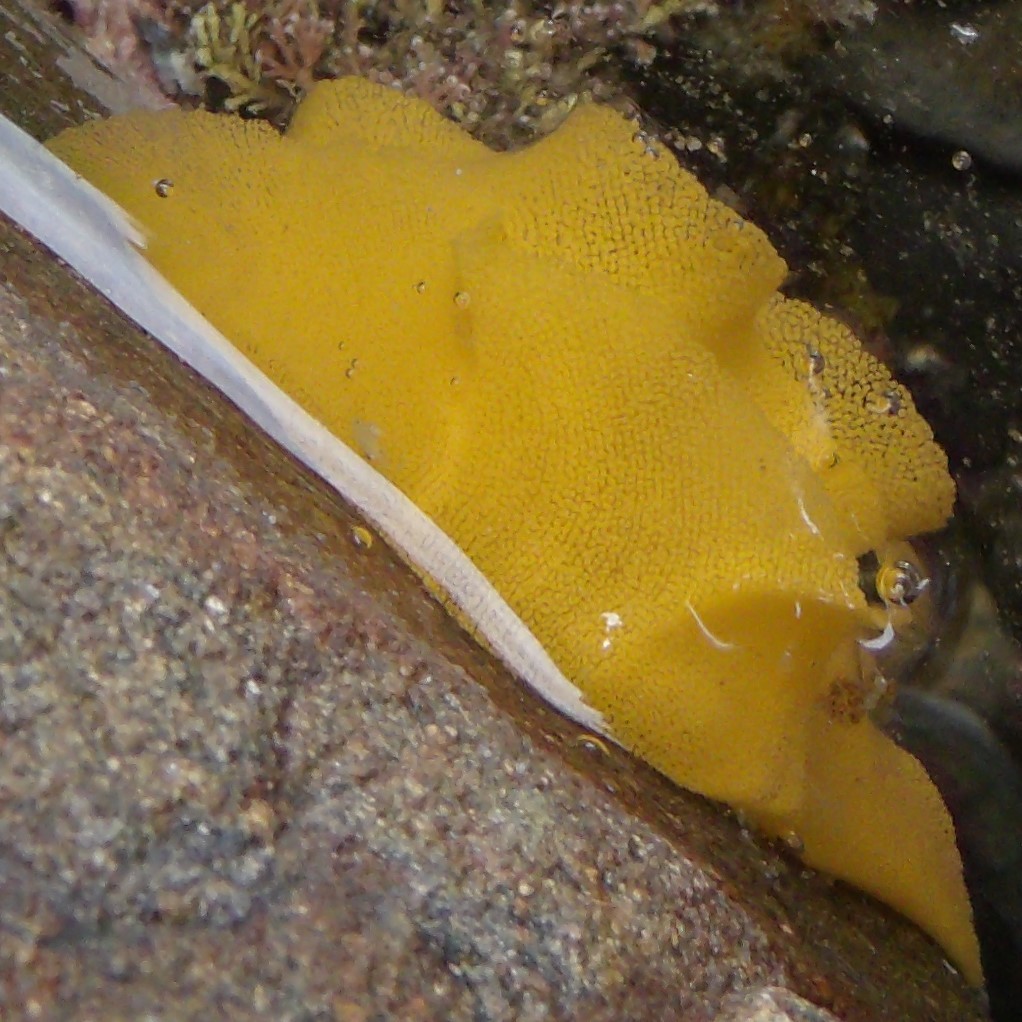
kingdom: Animalia
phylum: Mollusca
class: Gastropoda
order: Nudibranchia
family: Dorididae
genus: Doris
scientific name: Doris wellingtonensis
